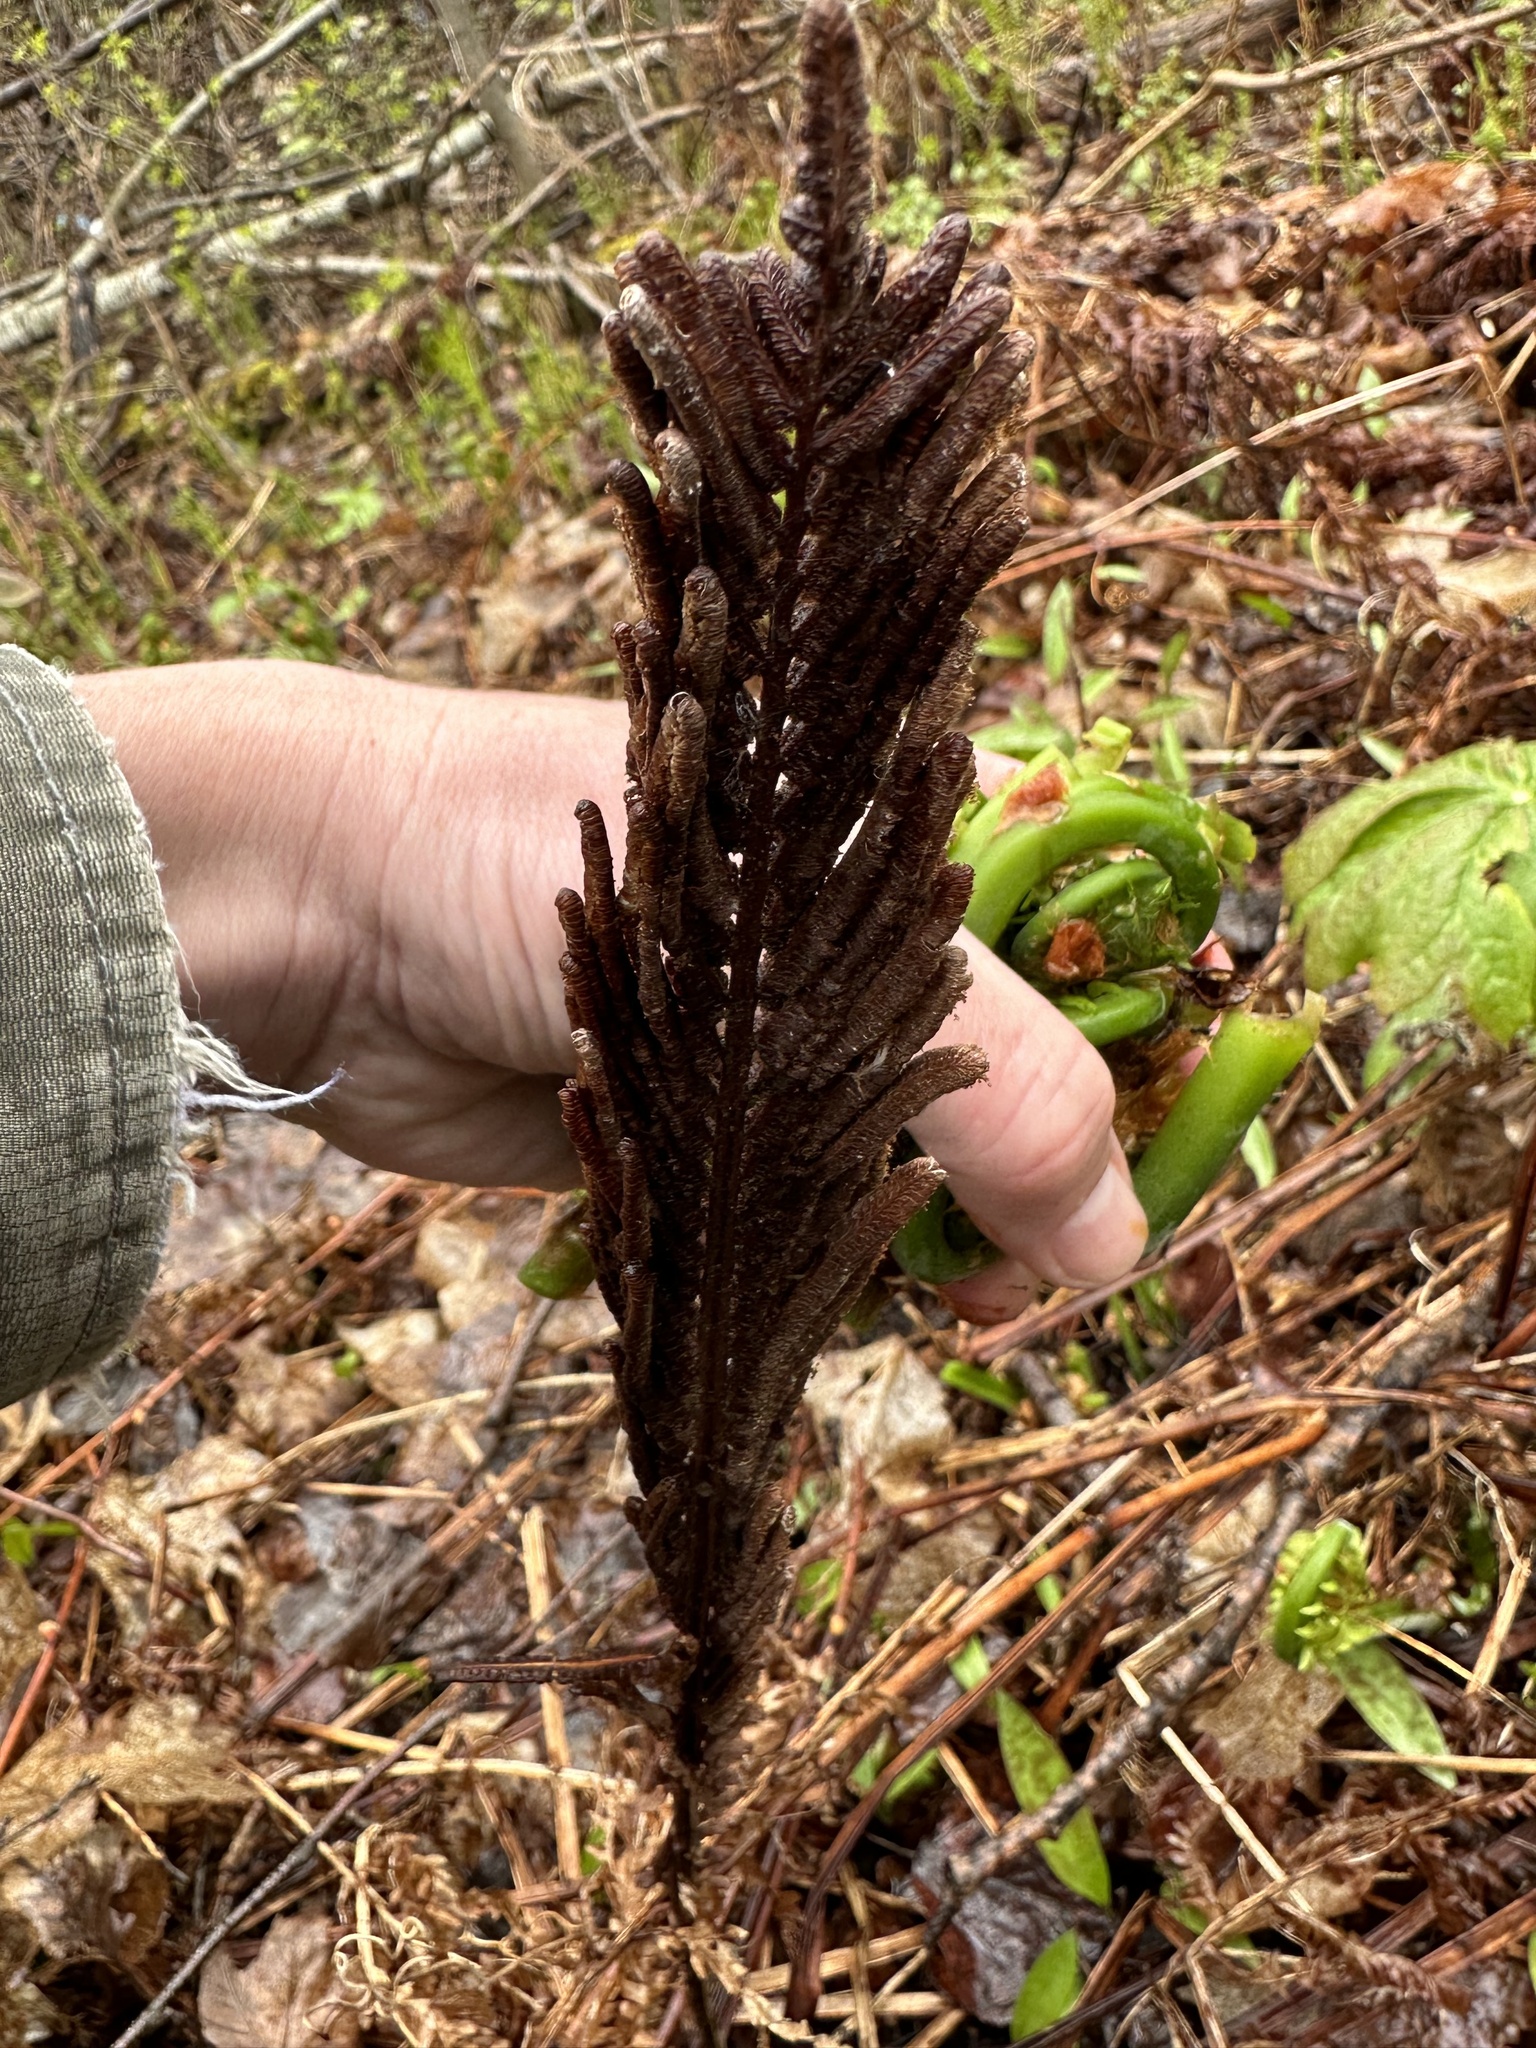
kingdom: Plantae
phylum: Tracheophyta
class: Polypodiopsida
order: Polypodiales
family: Onocleaceae
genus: Matteuccia
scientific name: Matteuccia struthiopteris
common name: Ostrich fern
